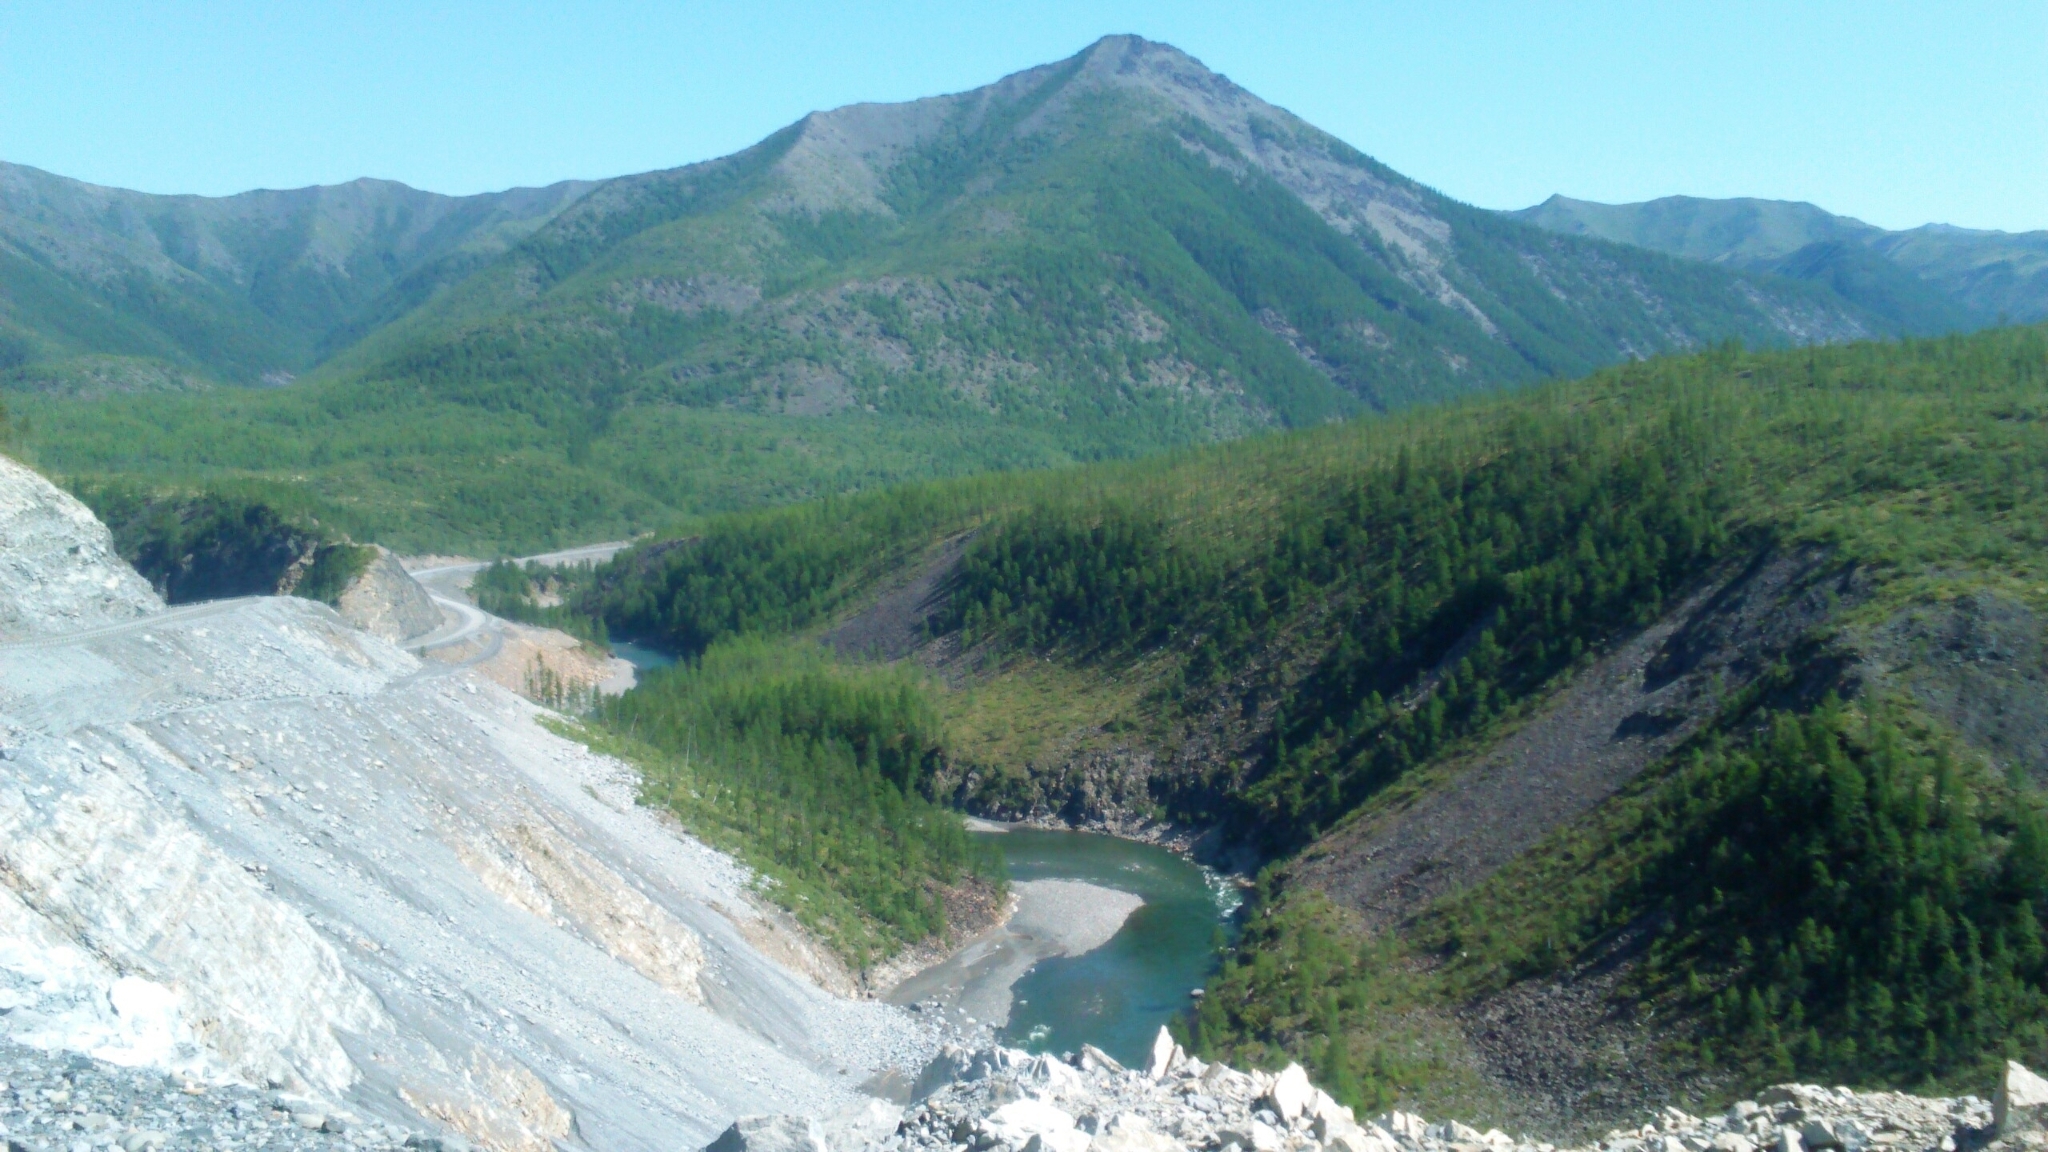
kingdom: Plantae
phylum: Tracheophyta
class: Pinopsida
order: Pinales
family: Pinaceae
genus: Larix
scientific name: Larix gmelinii
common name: Dahurian larch
